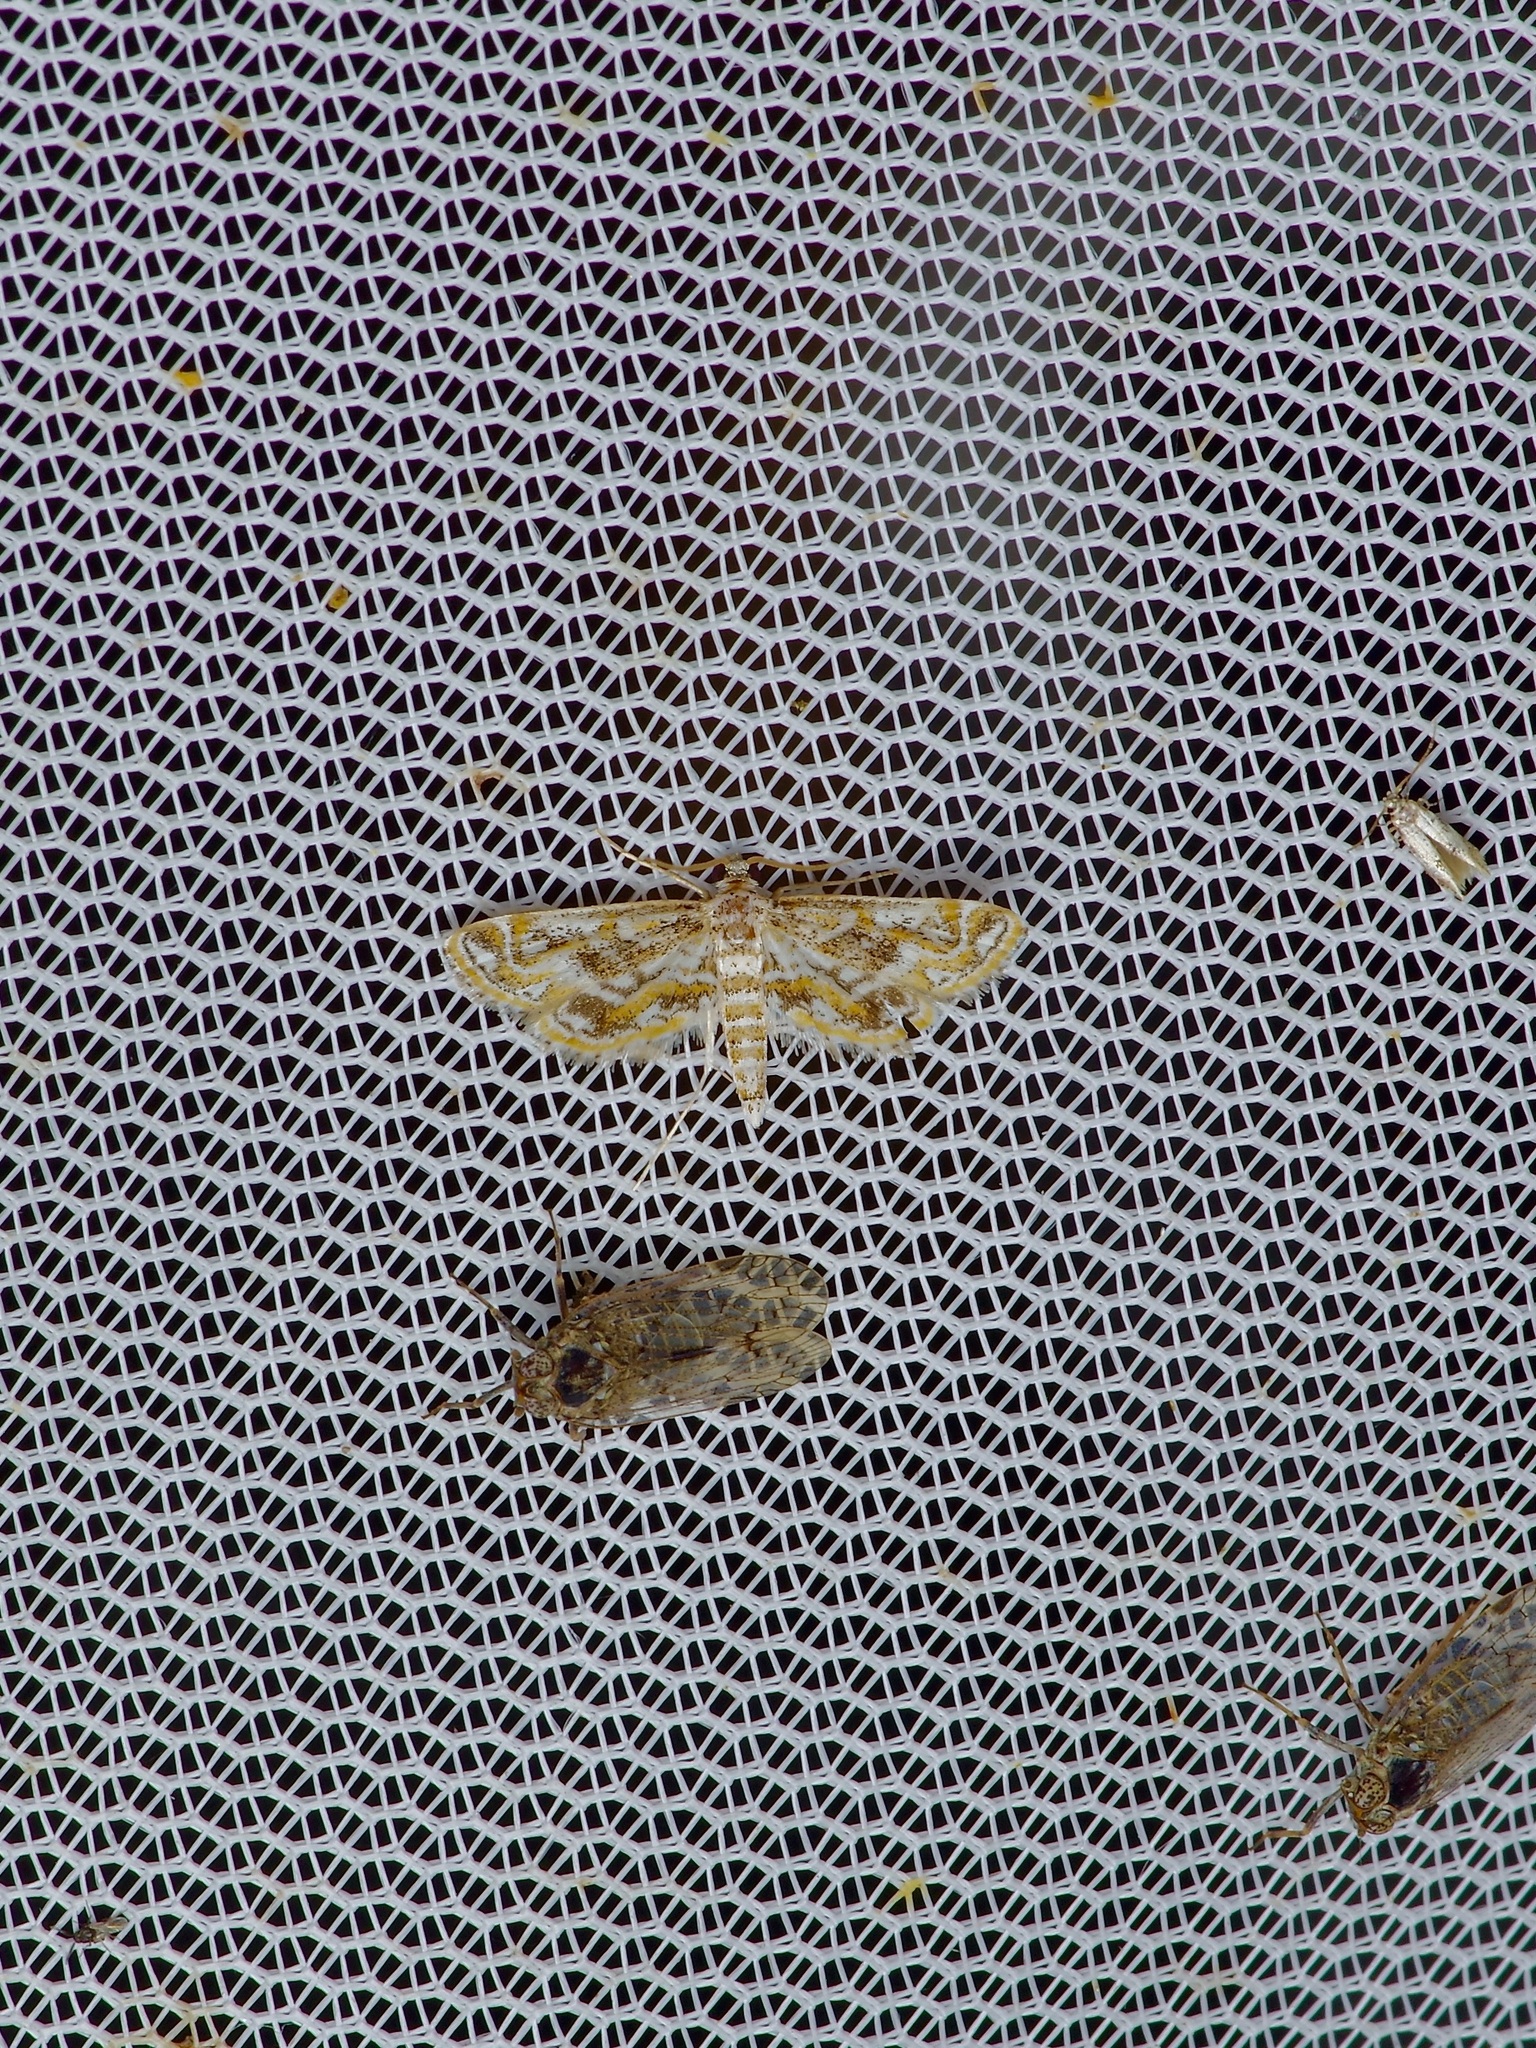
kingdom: Animalia
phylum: Arthropoda
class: Insecta
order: Lepidoptera
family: Crambidae
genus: Parapoynx
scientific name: Parapoynx diminutalis
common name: Hydrilla leafcutter
